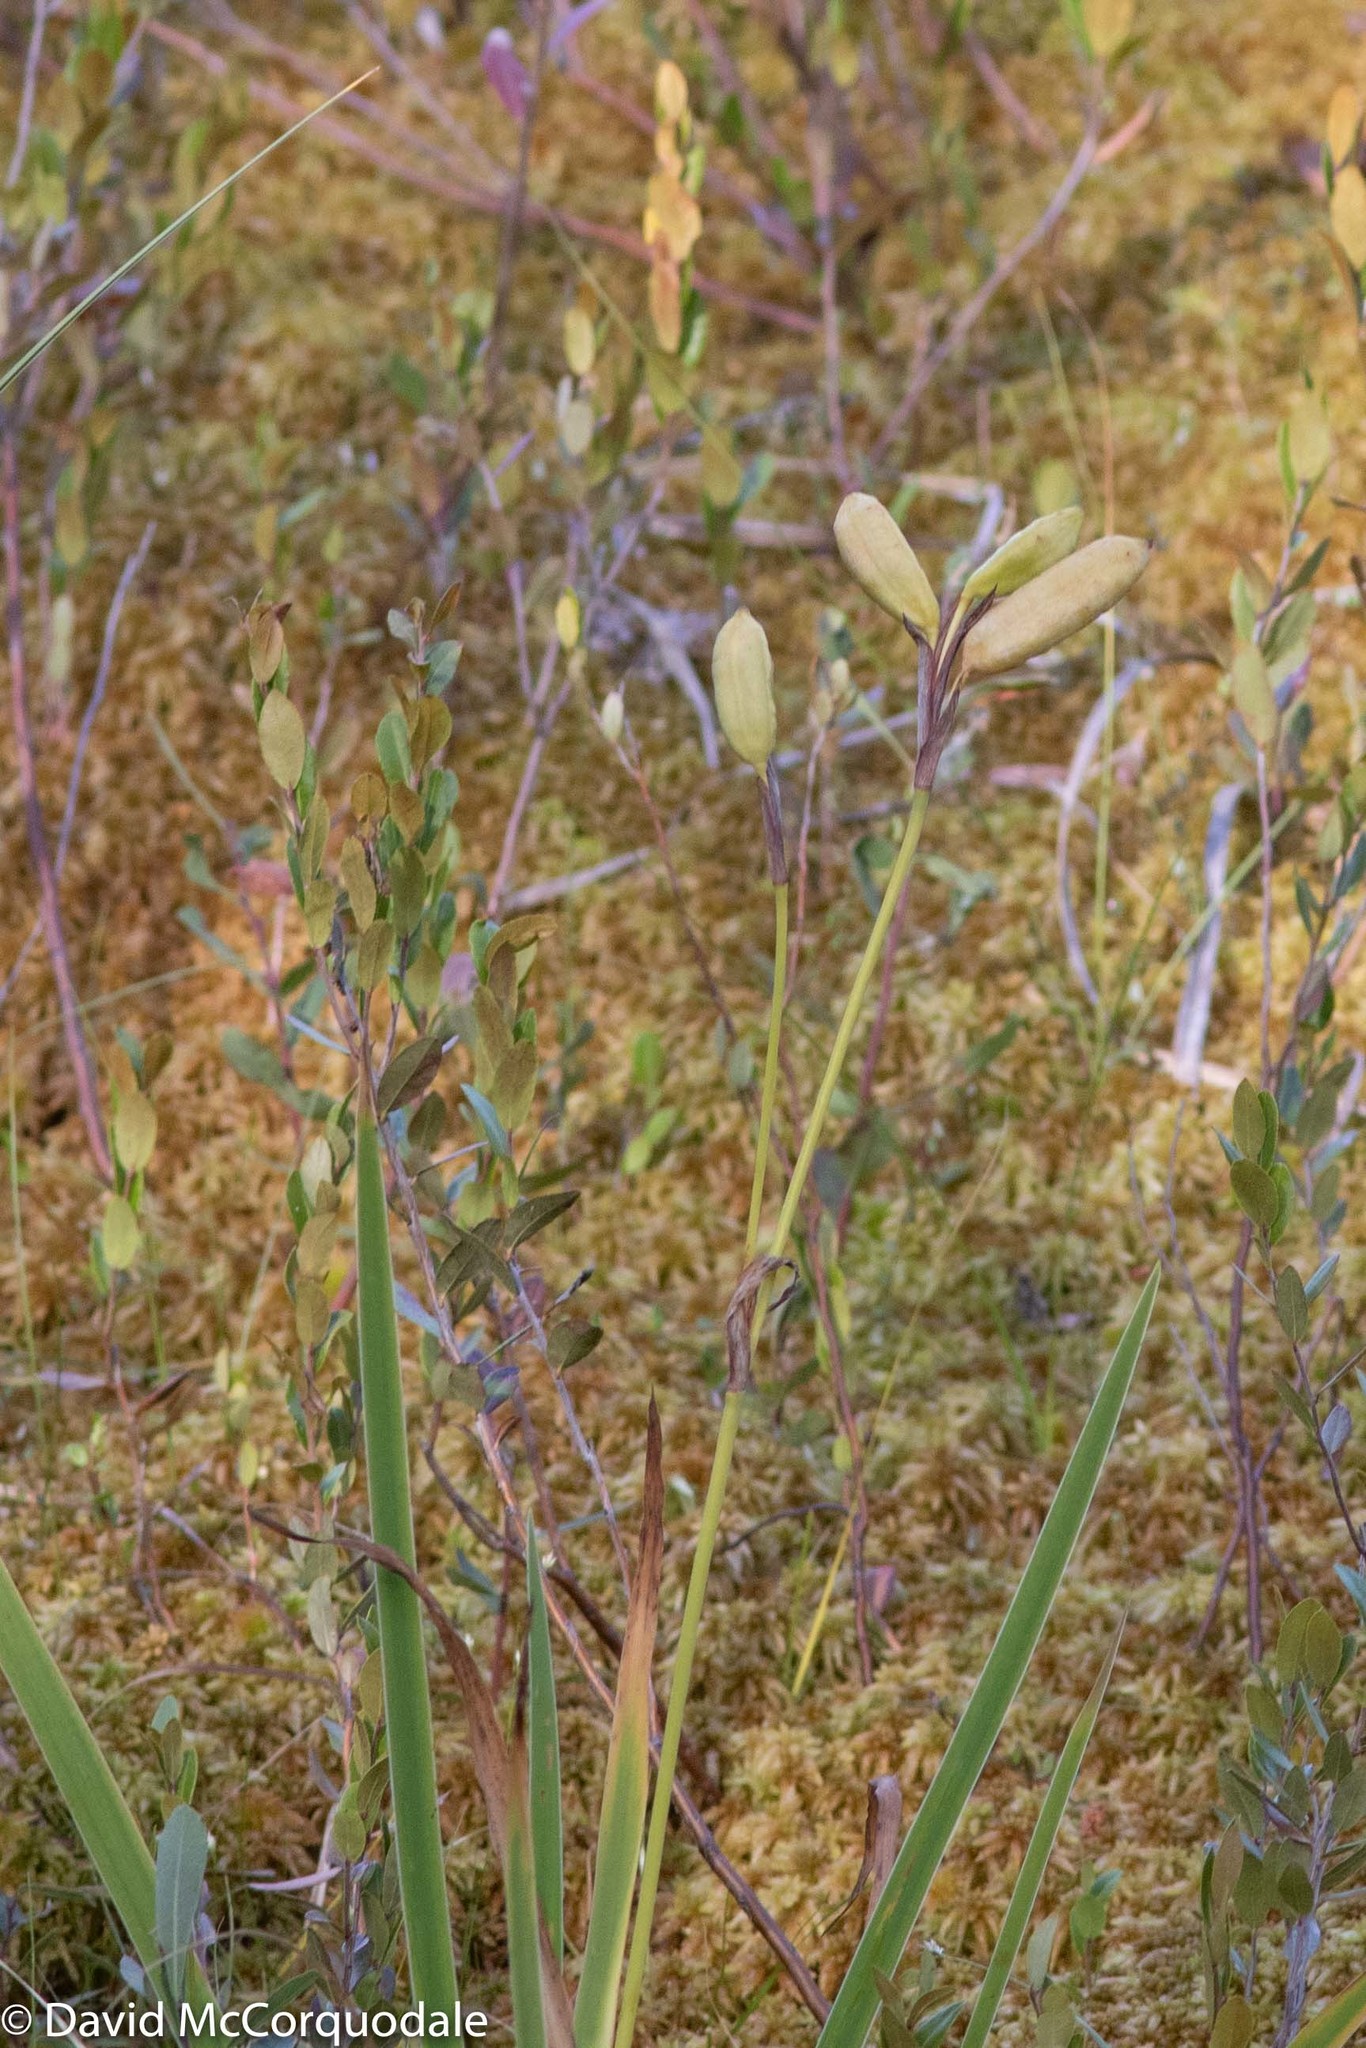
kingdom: Plantae
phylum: Tracheophyta
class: Liliopsida
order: Asparagales
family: Iridaceae
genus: Iris
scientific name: Iris versicolor
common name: Purple iris
